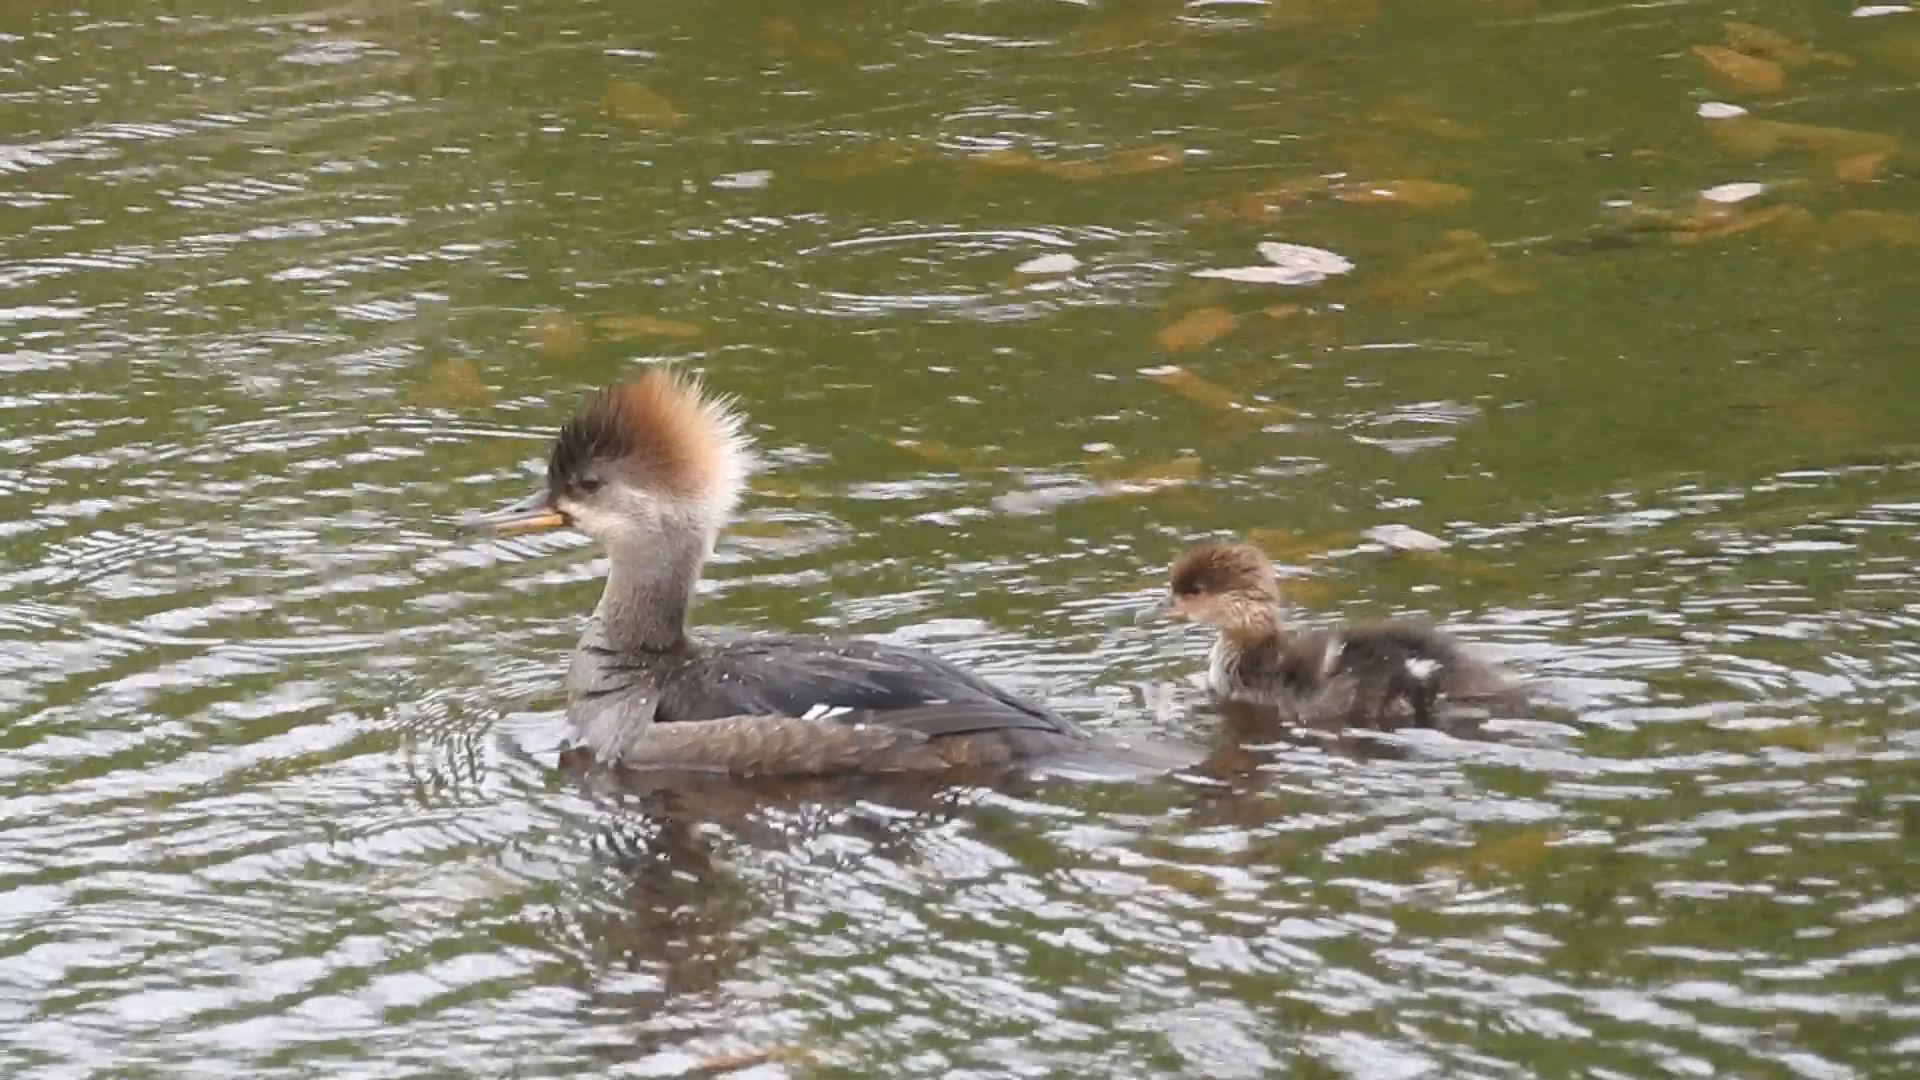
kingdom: Animalia
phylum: Chordata
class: Aves
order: Anseriformes
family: Anatidae
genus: Lophodytes
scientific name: Lophodytes cucullatus
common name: Hooded merganser
